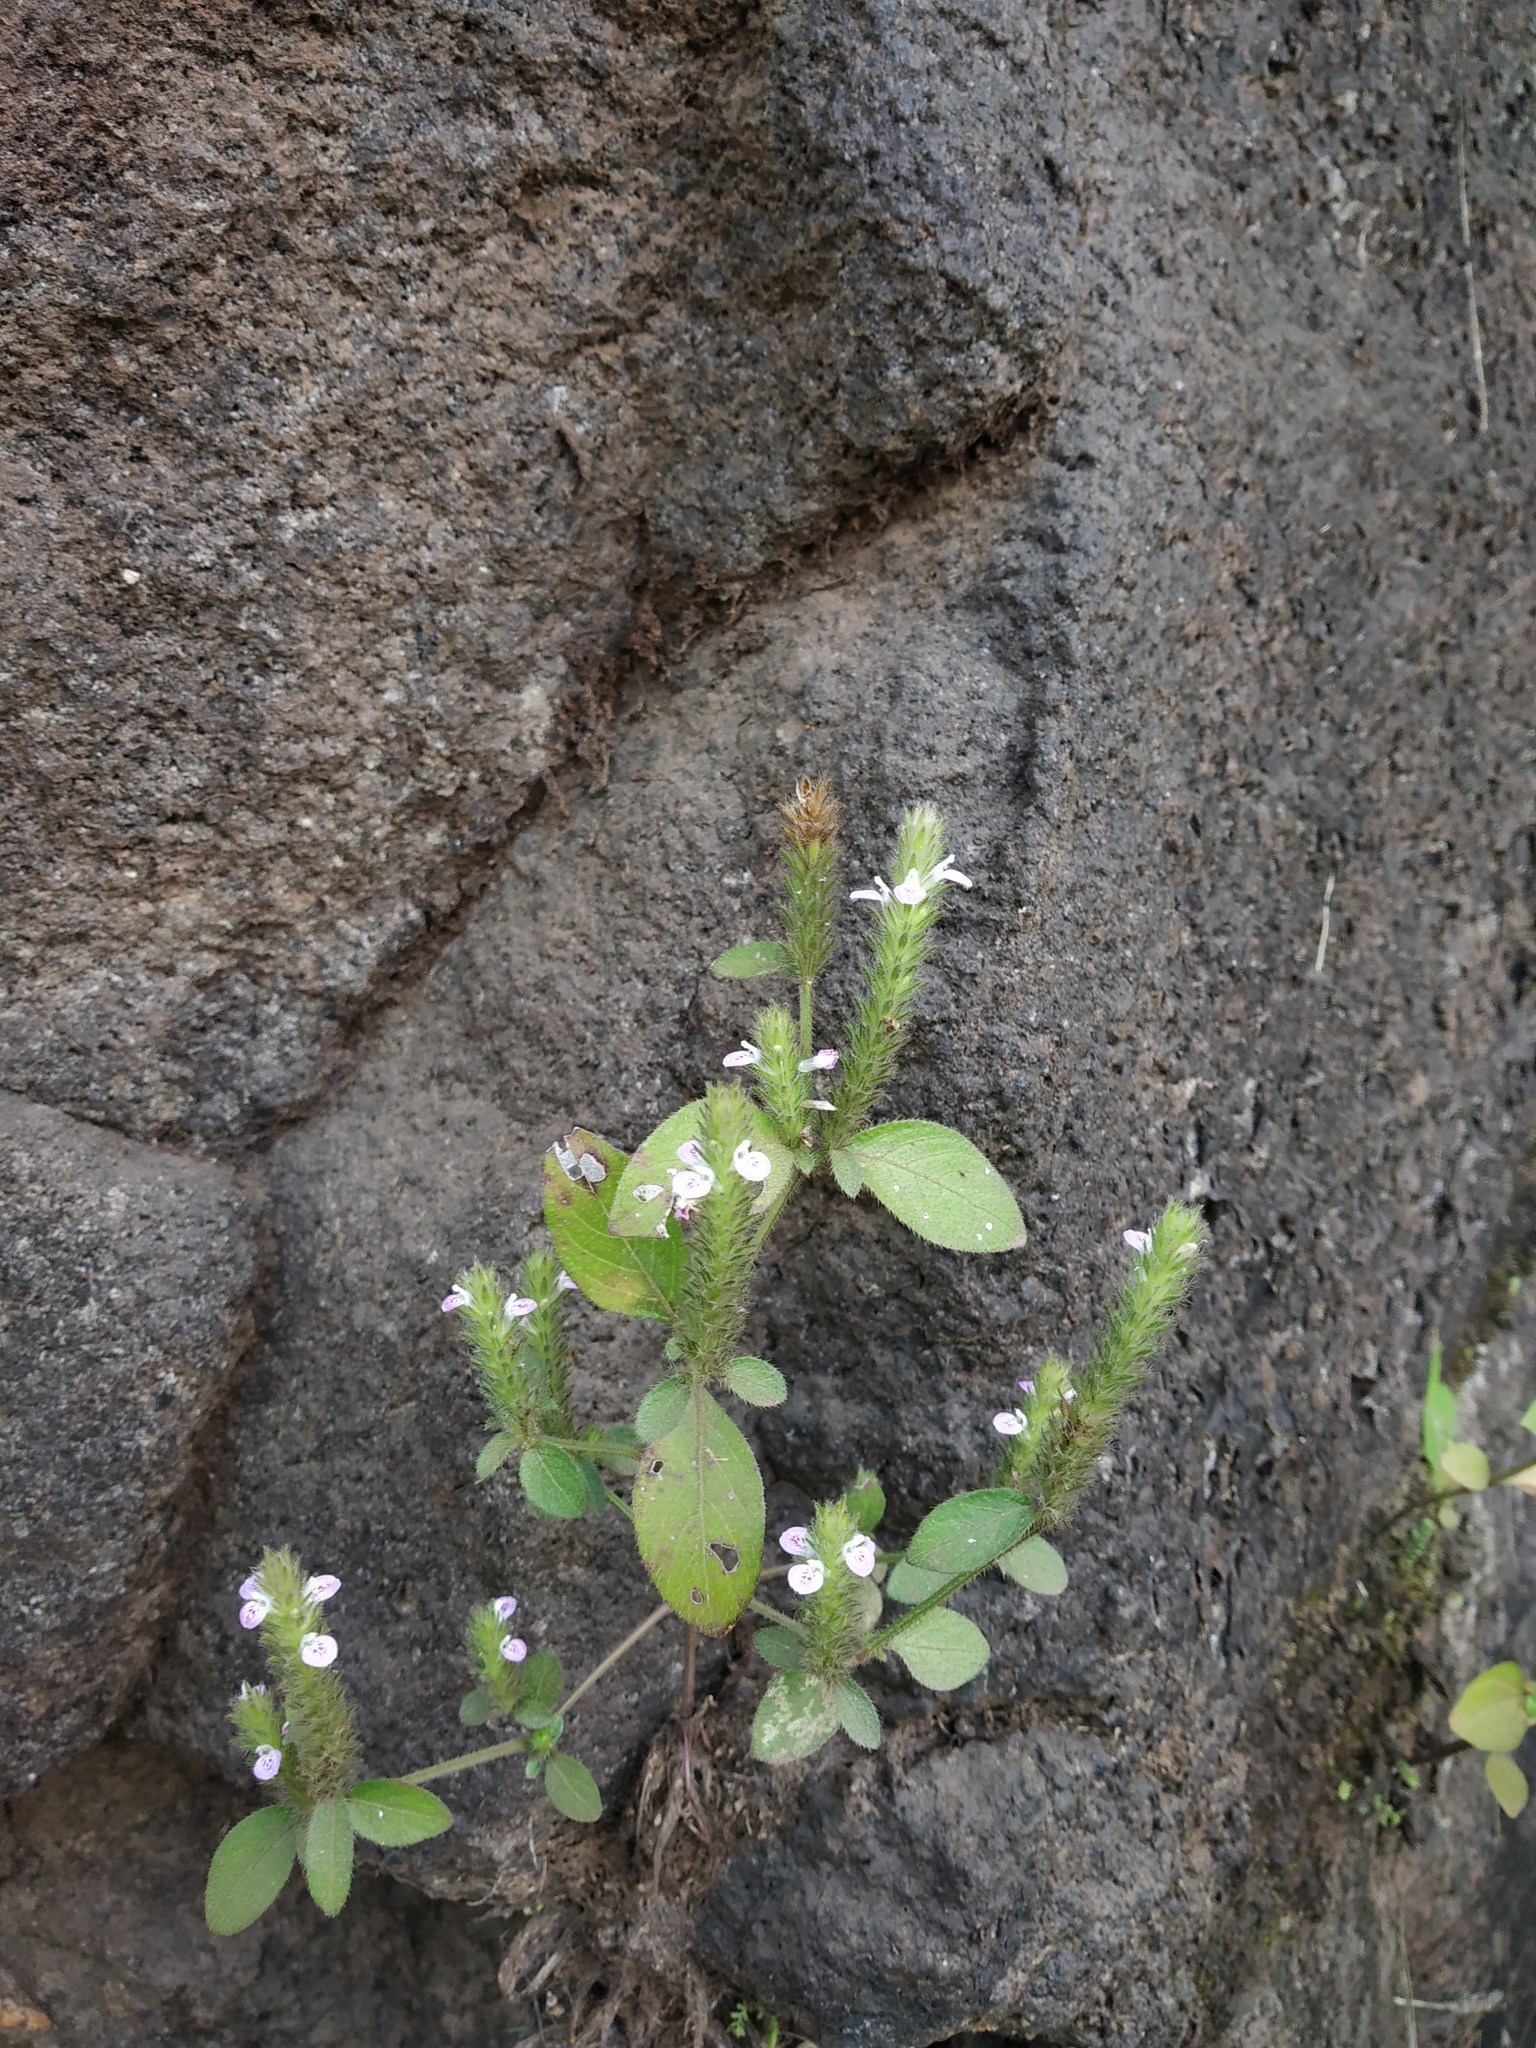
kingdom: Plantae
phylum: Tracheophyta
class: Magnoliopsida
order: Lamiales
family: Acanthaceae
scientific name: Acanthaceae
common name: Acanthaceae
